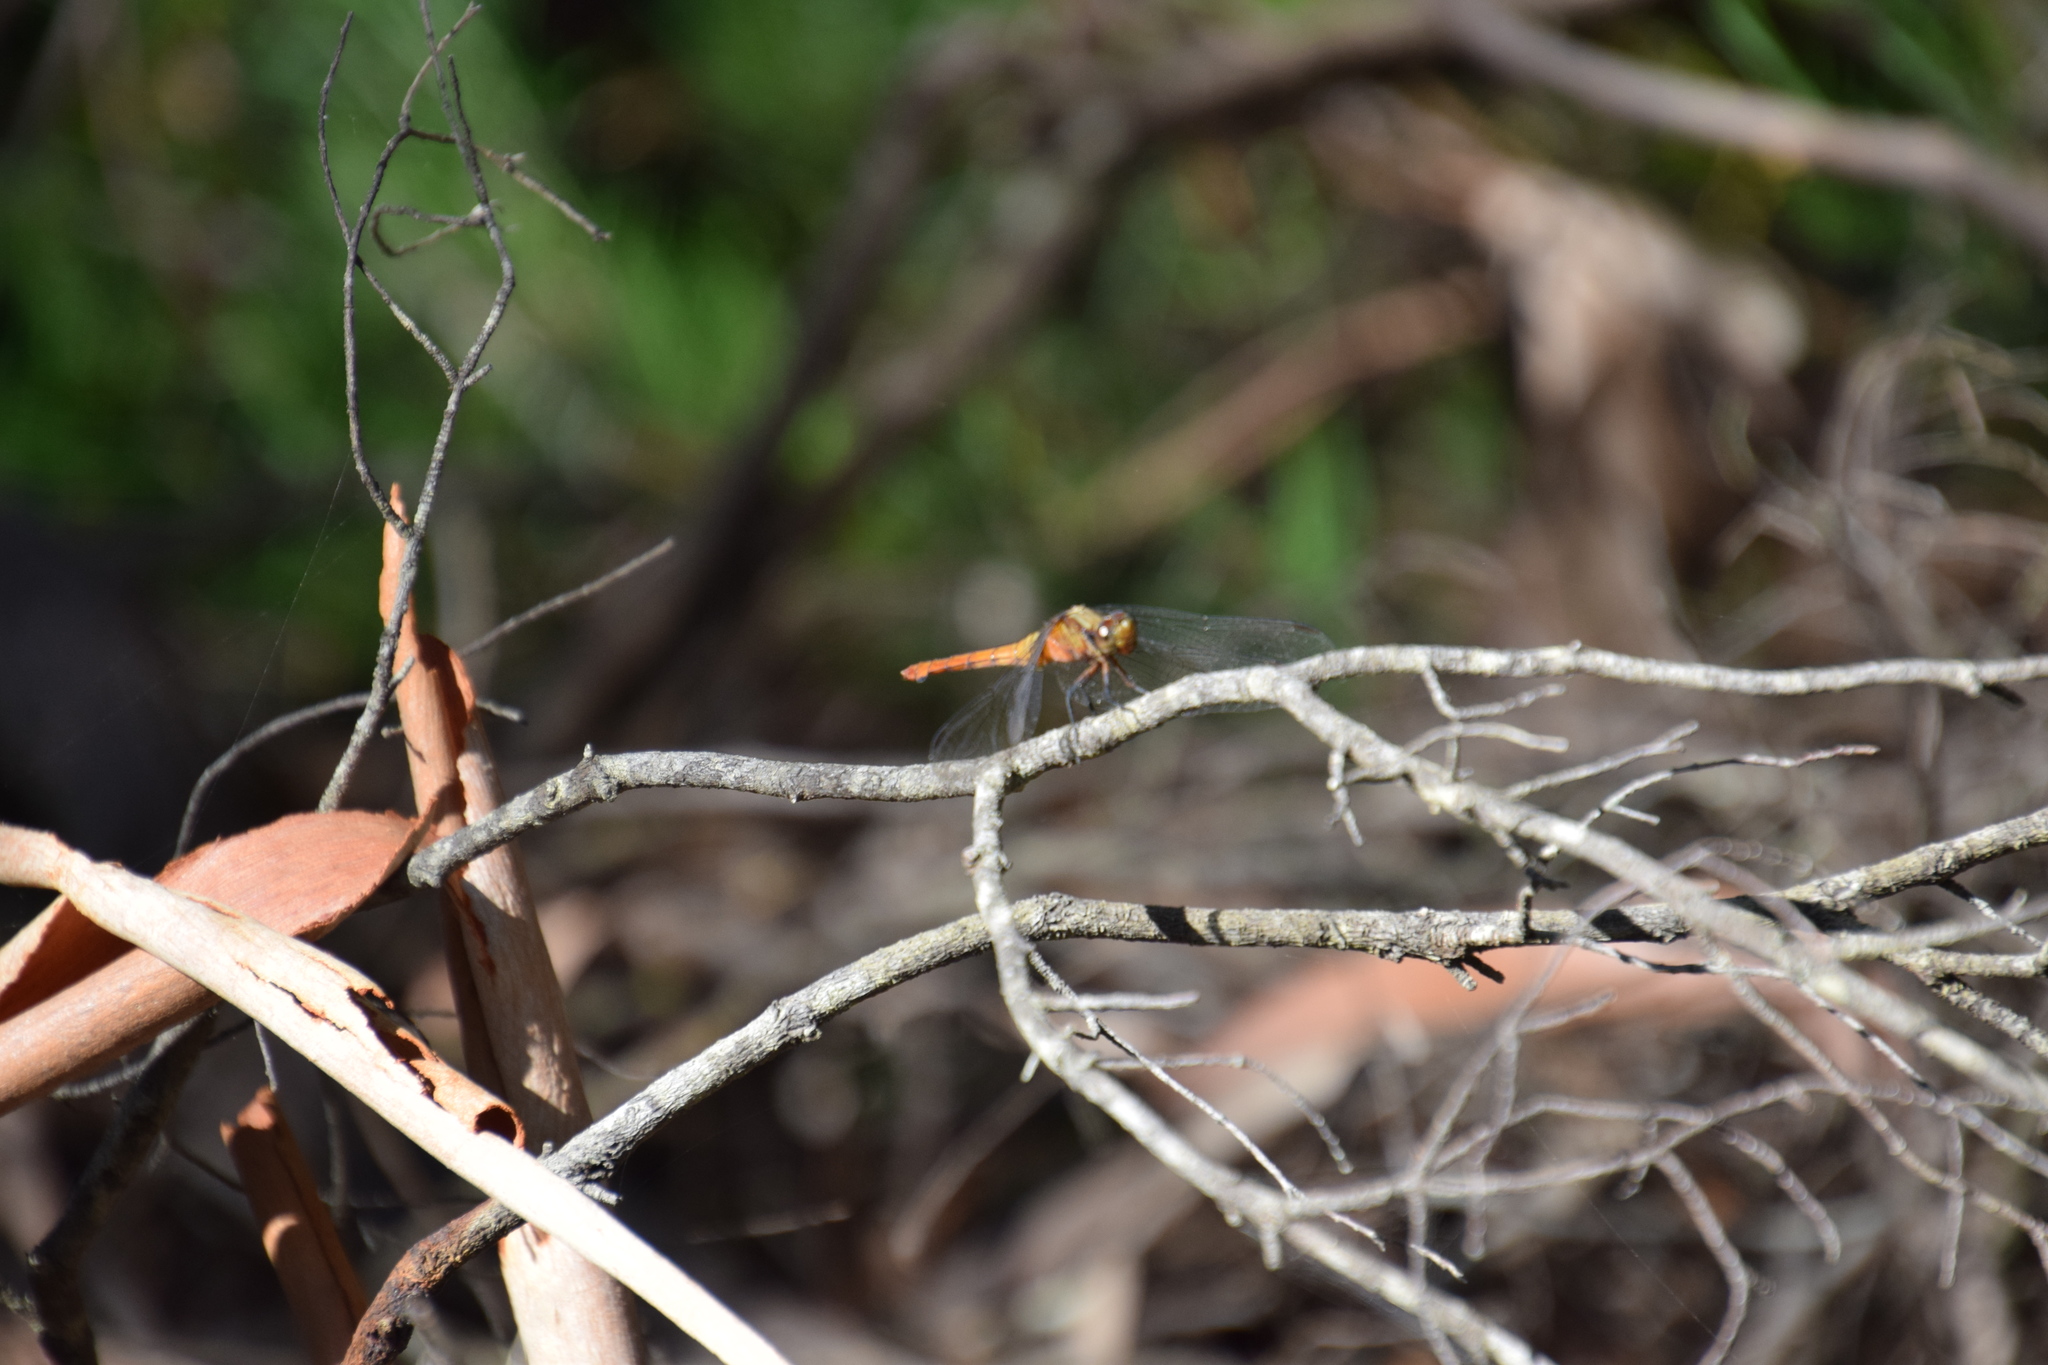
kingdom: Animalia
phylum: Arthropoda
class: Insecta
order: Odonata
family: Libellulidae
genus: Orthetrum
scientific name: Orthetrum villosovittatum
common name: Firery skimmer
